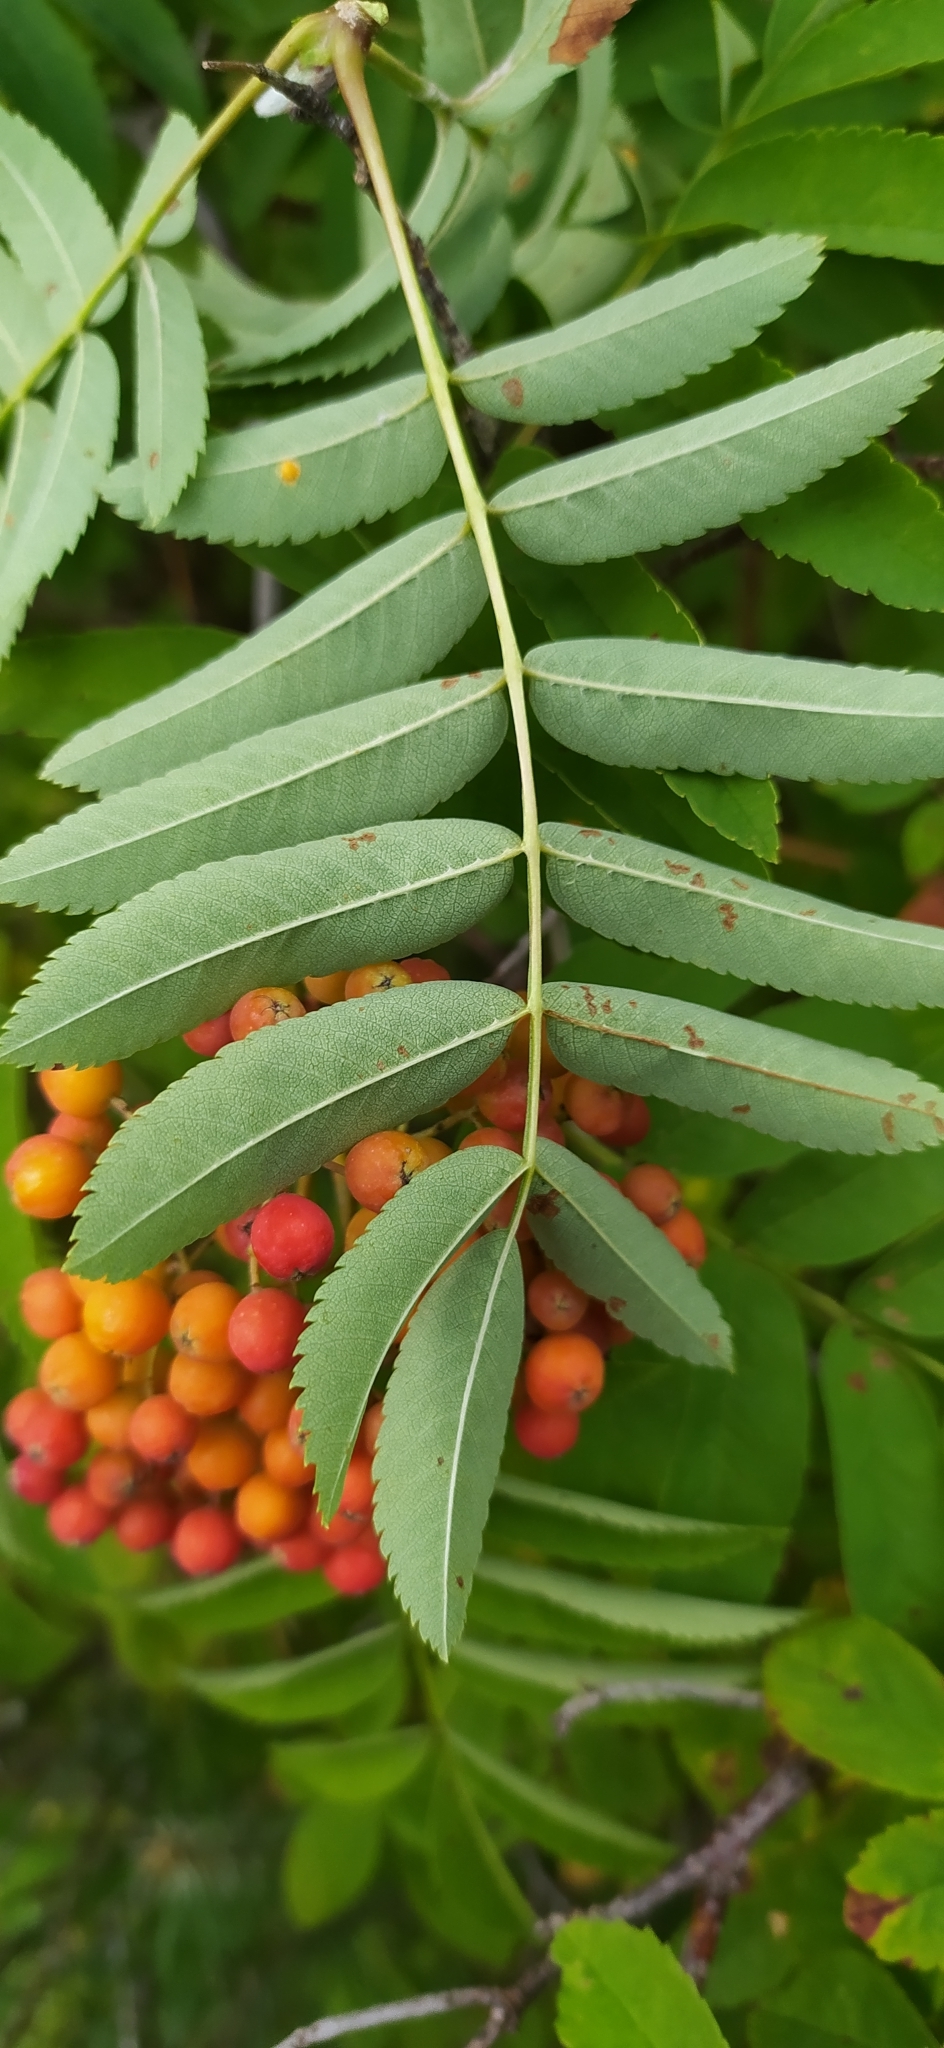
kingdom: Plantae
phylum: Tracheophyta
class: Magnoliopsida
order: Rosales
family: Rosaceae
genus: Sorbus
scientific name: Sorbus aucuparia
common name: Rowan
